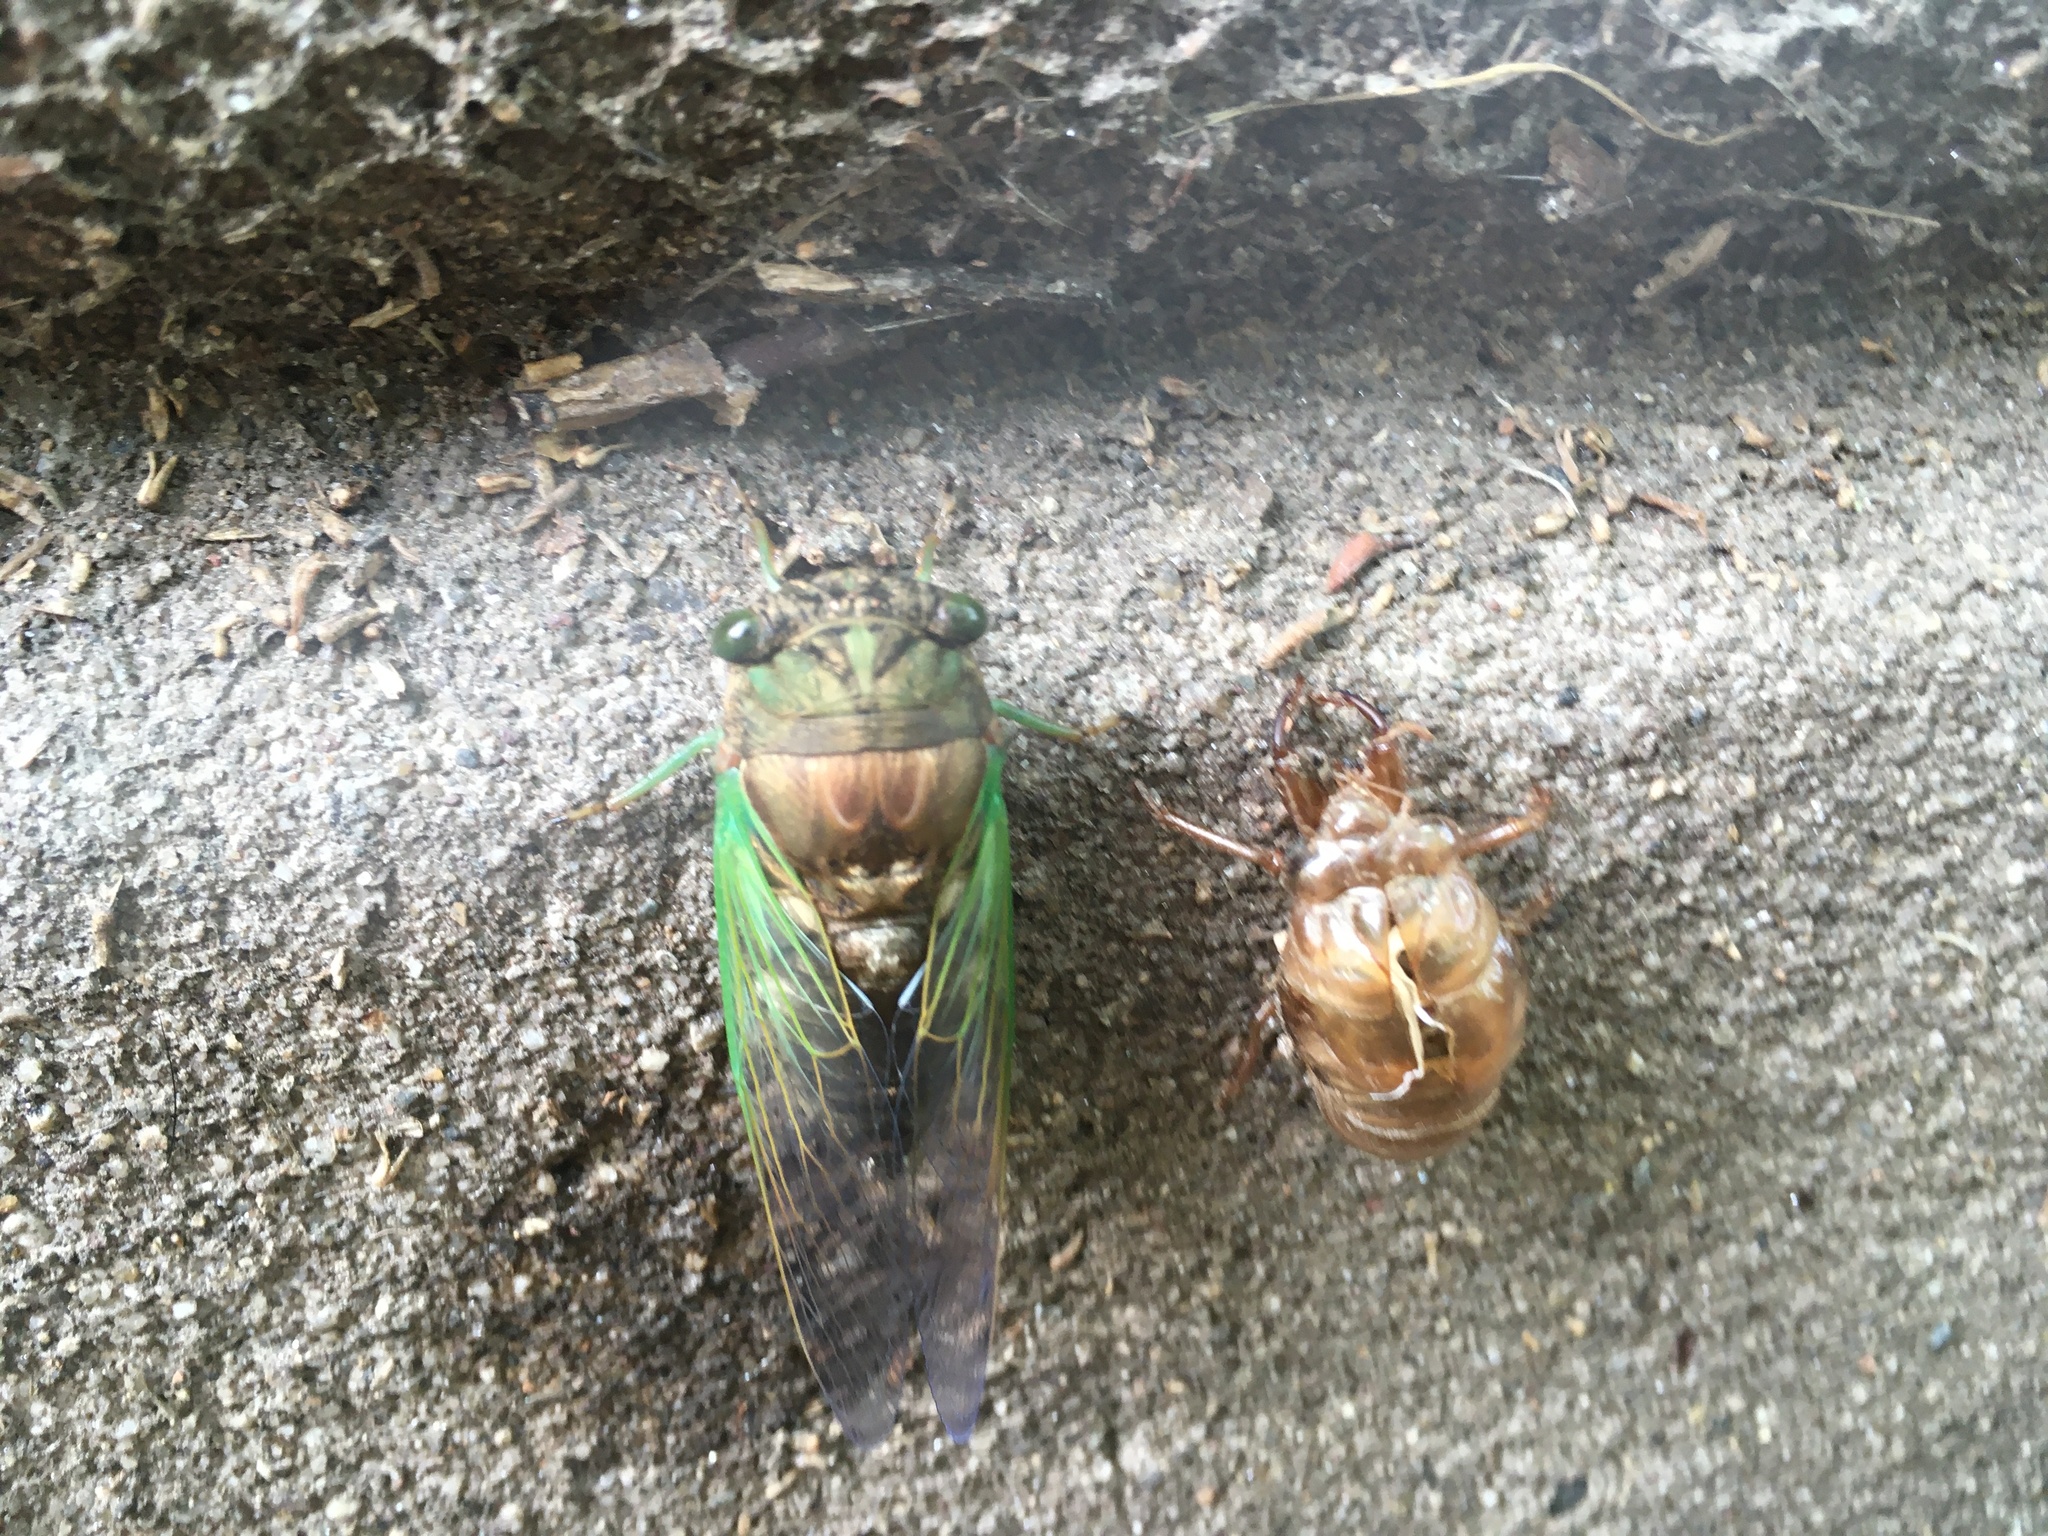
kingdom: Animalia
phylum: Arthropoda
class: Insecta
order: Hemiptera
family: Cicadidae
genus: Neotibicen
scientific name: Neotibicen tibicen
